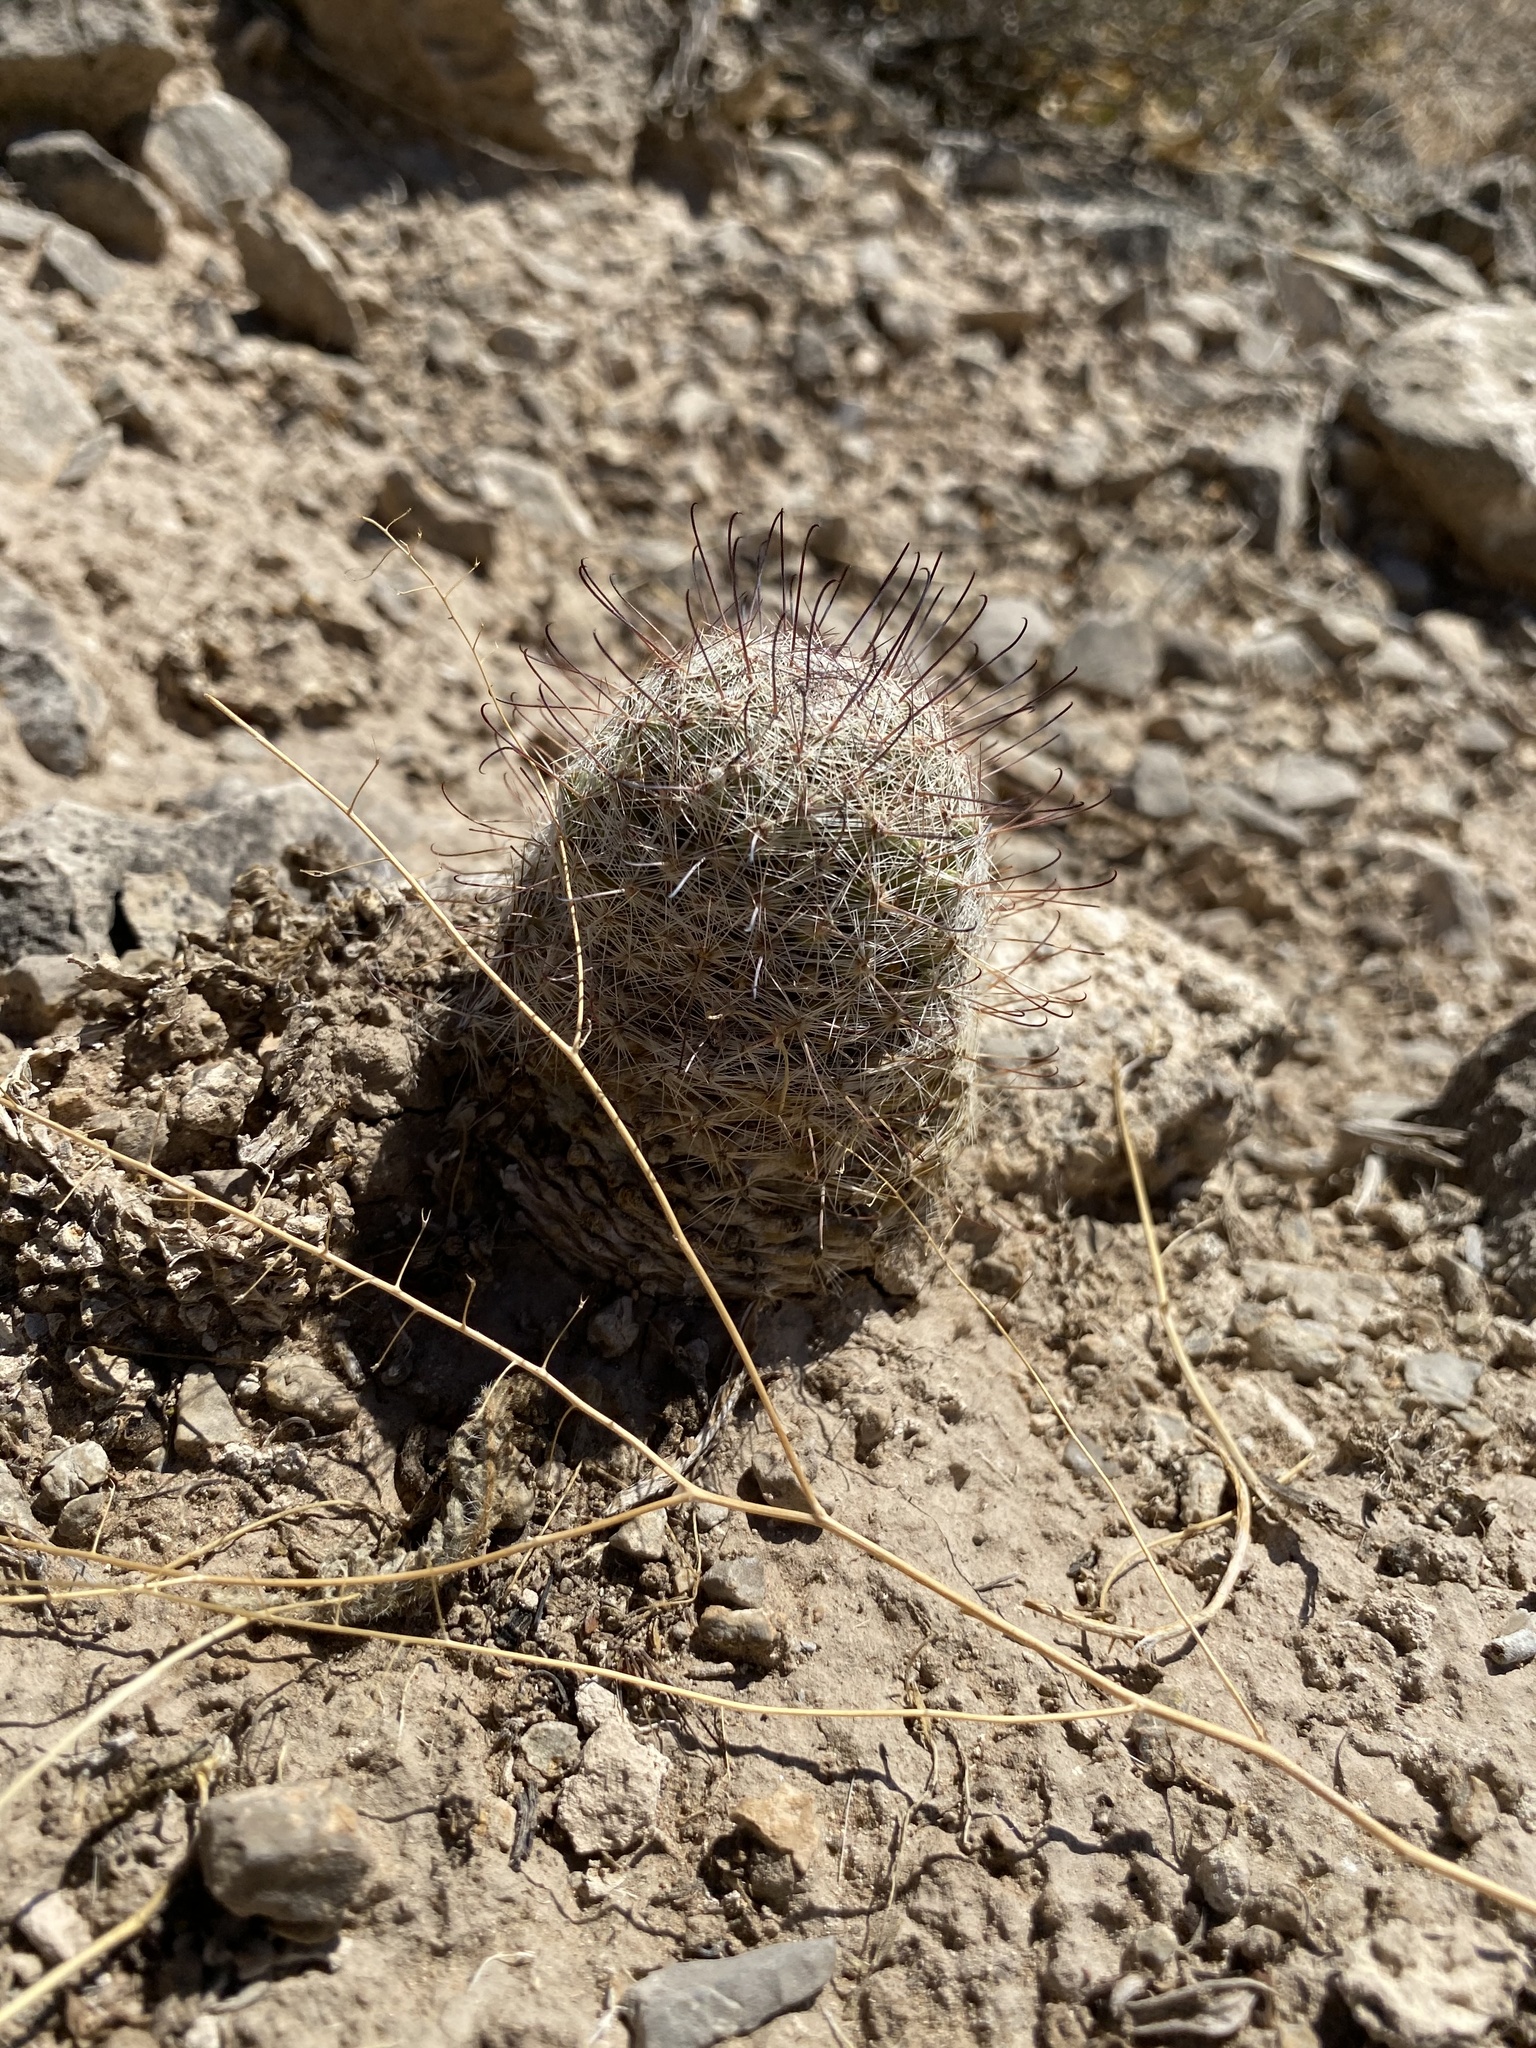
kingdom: Plantae
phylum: Tracheophyta
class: Magnoliopsida
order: Caryophyllales
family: Cactaceae
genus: Cochemiea
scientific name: Cochemiea grahamii
